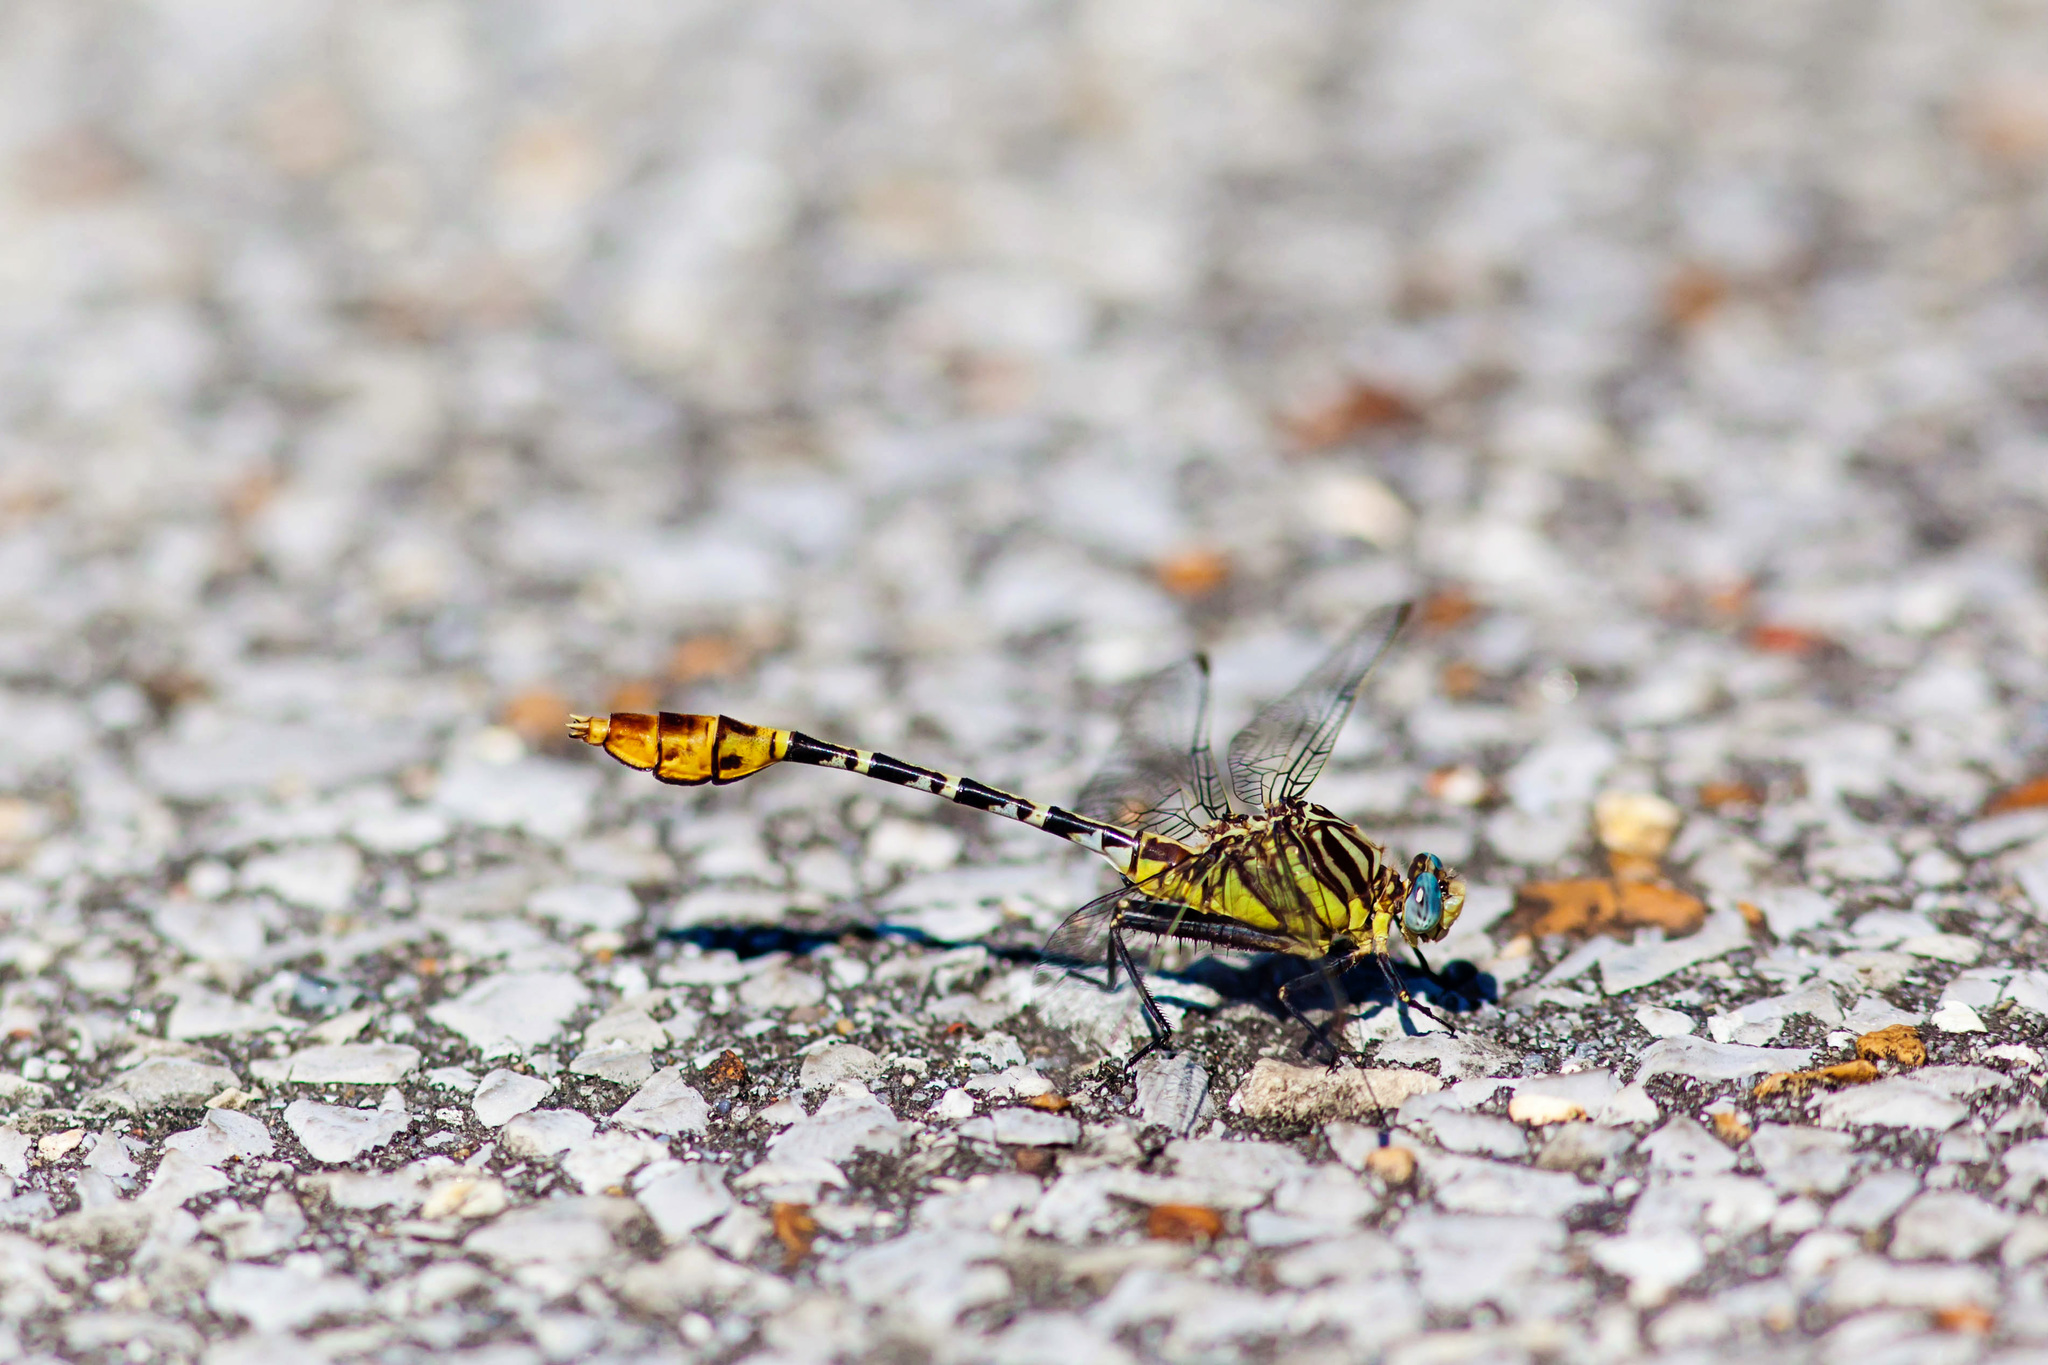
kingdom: Animalia
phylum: Arthropoda
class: Insecta
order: Odonata
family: Gomphidae
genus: Dromogomphus
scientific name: Dromogomphus spoliatus
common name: Flag-tailed spinyleg
